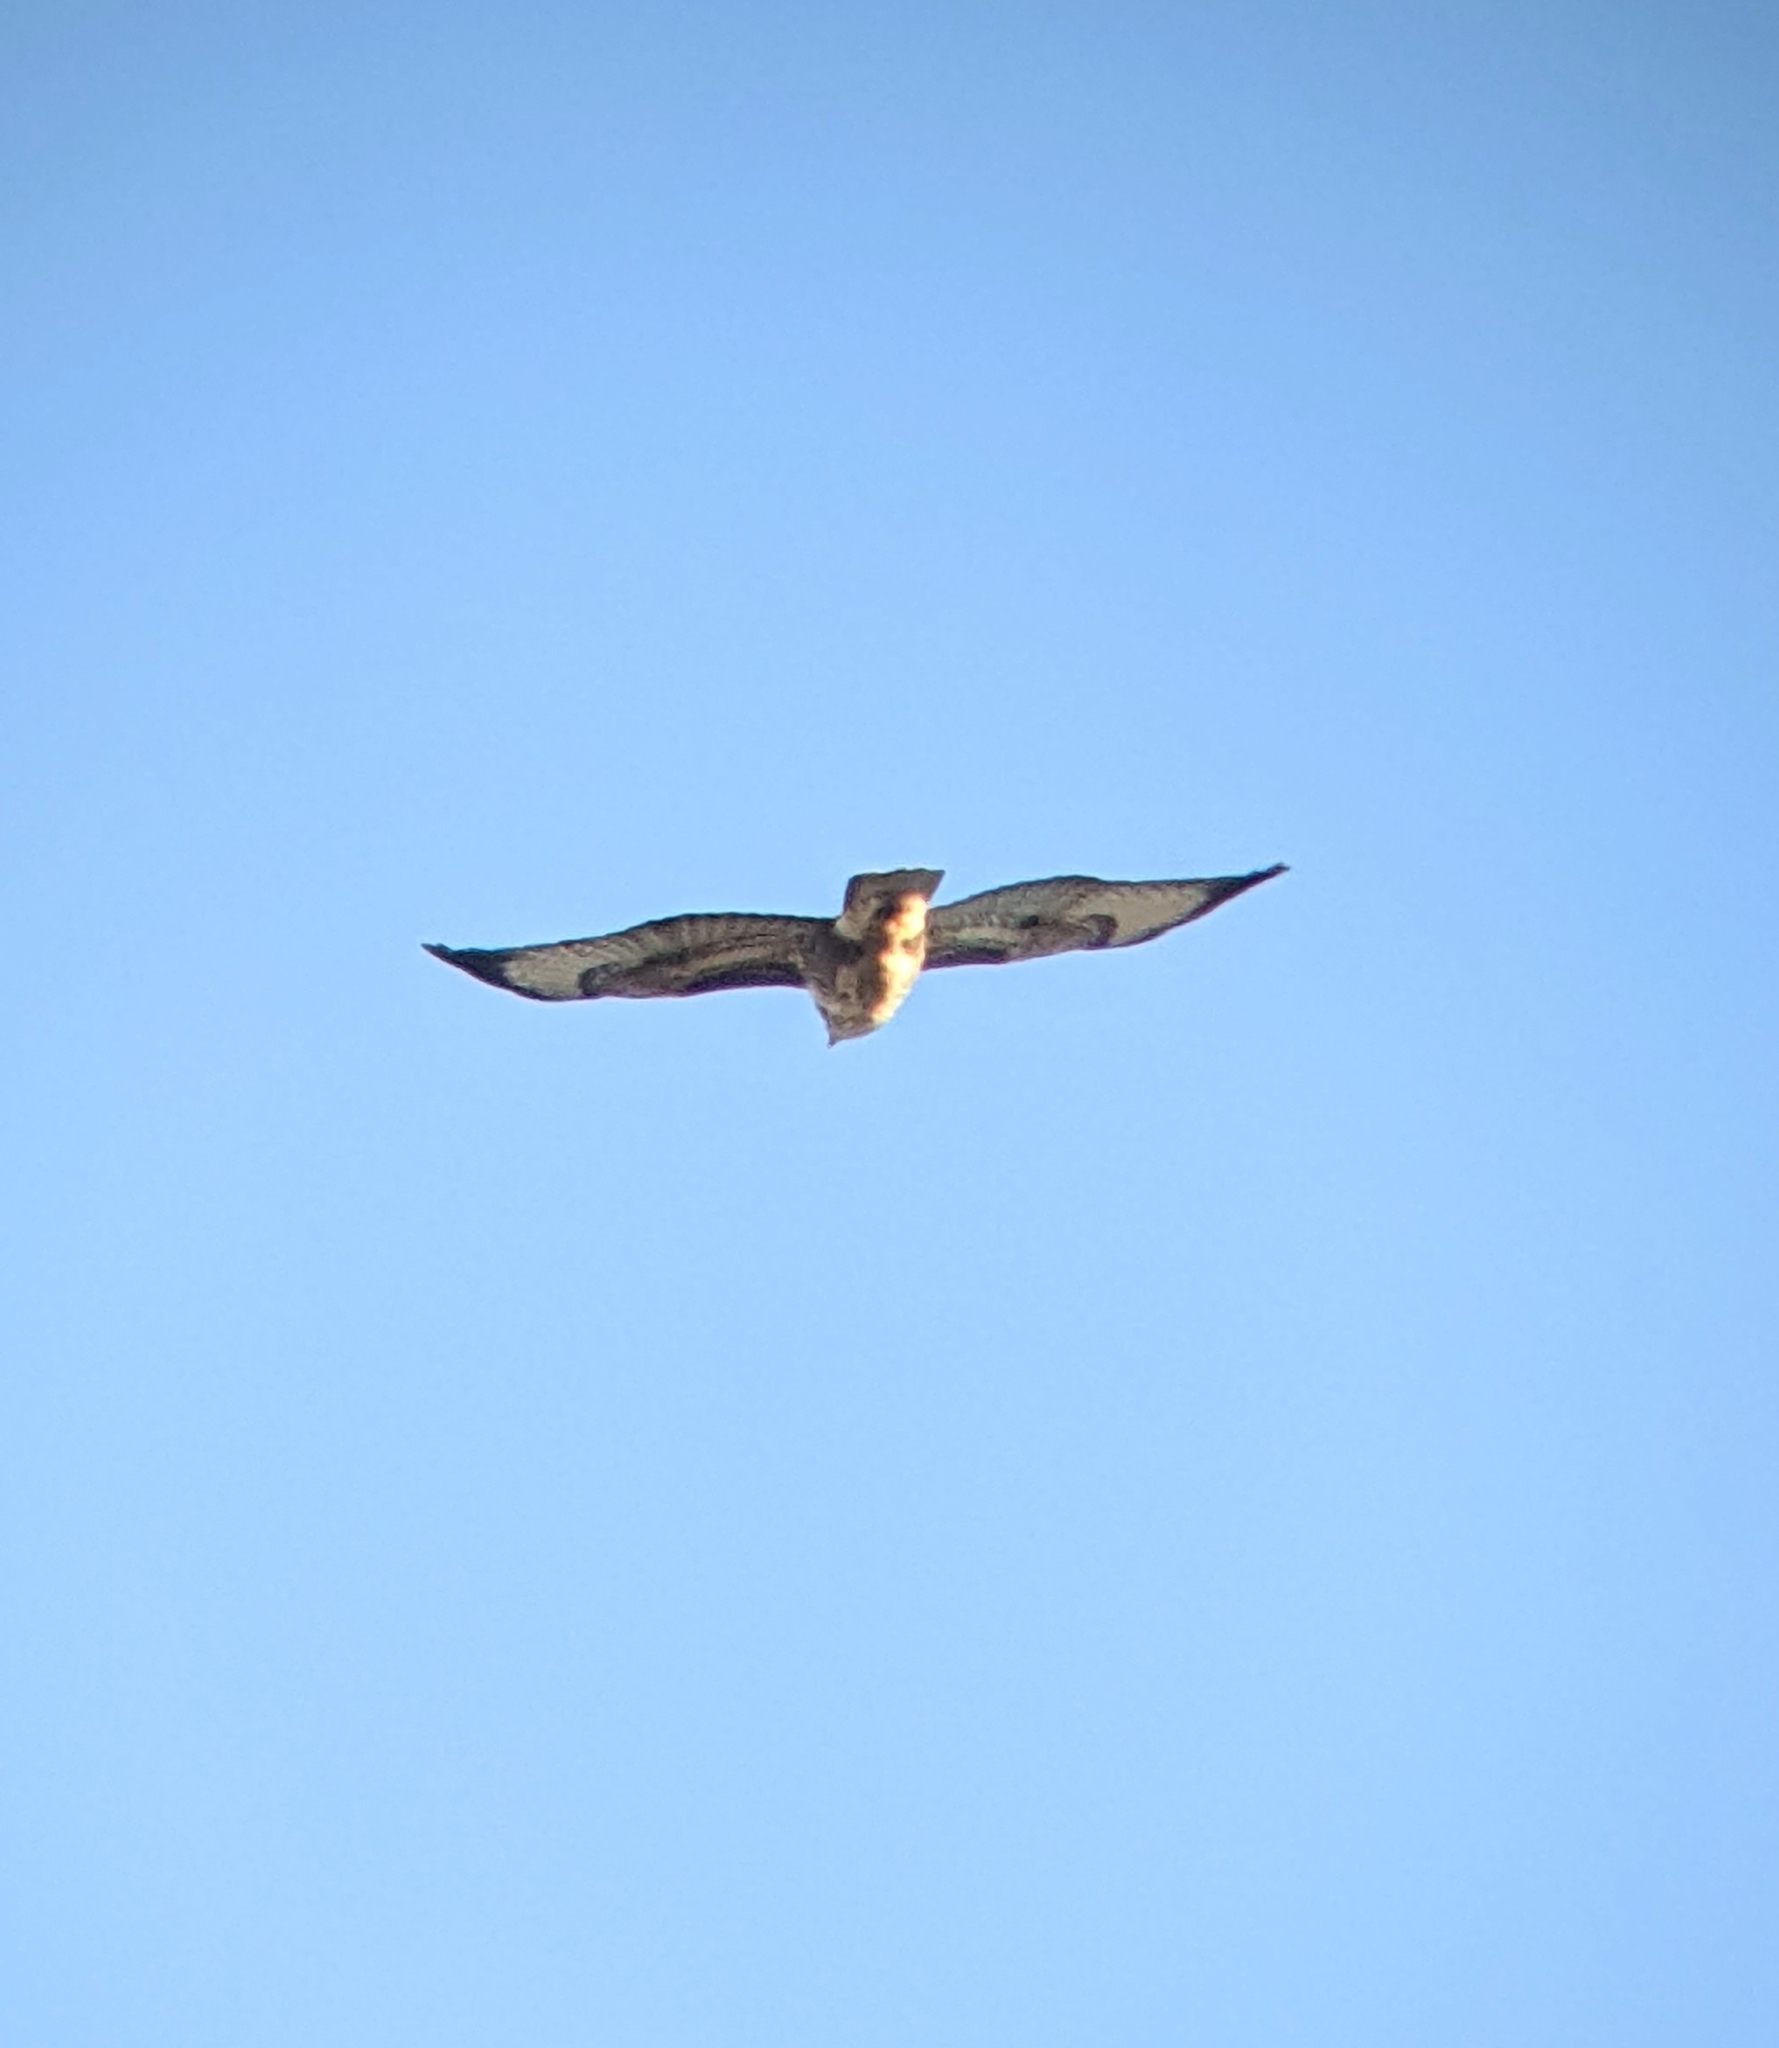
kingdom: Animalia
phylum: Chordata
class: Aves
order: Accipitriformes
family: Accipitridae
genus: Buteo
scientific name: Buteo buteo
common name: Common buzzard
